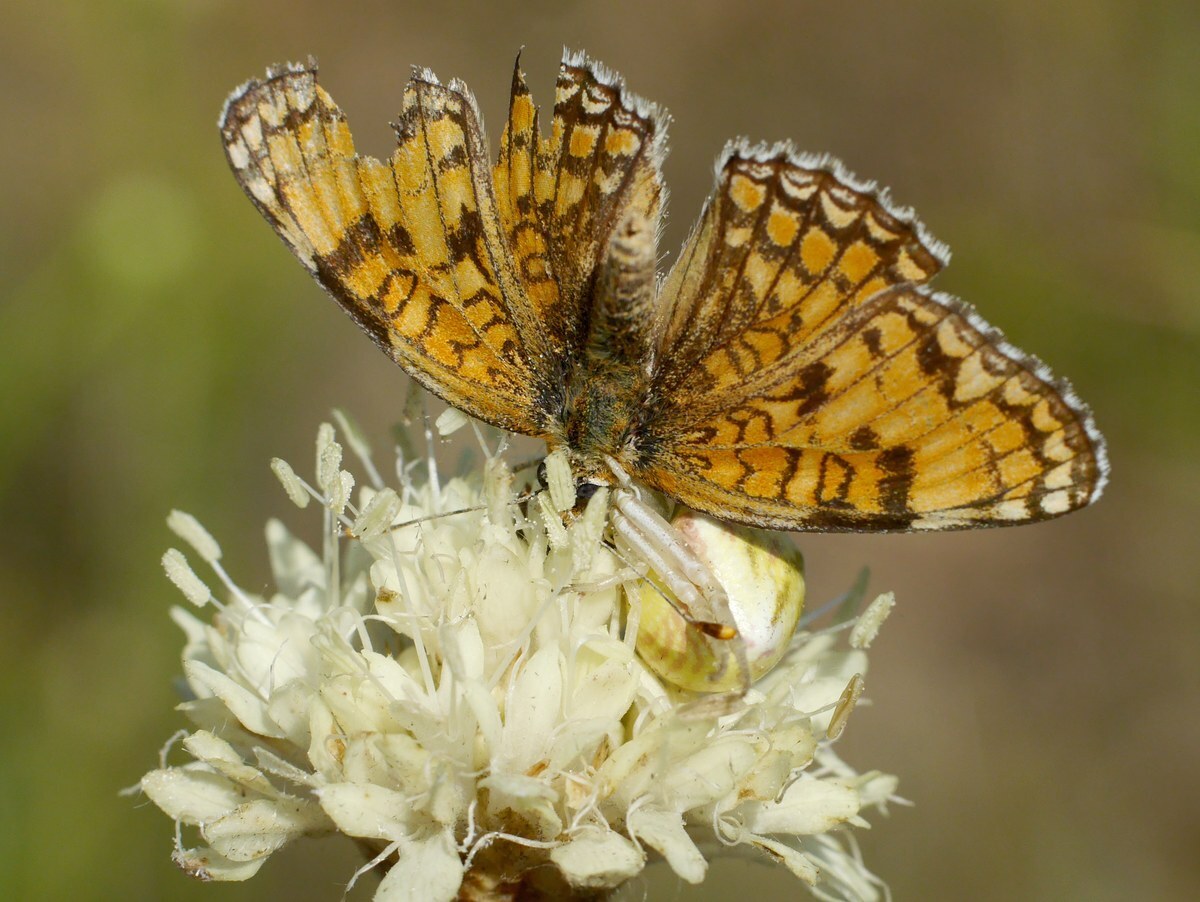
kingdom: Animalia
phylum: Arthropoda
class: Insecta
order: Lepidoptera
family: Nymphalidae
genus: Melitaea
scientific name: Melitaea phoebe
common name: Knapweed fritillary
